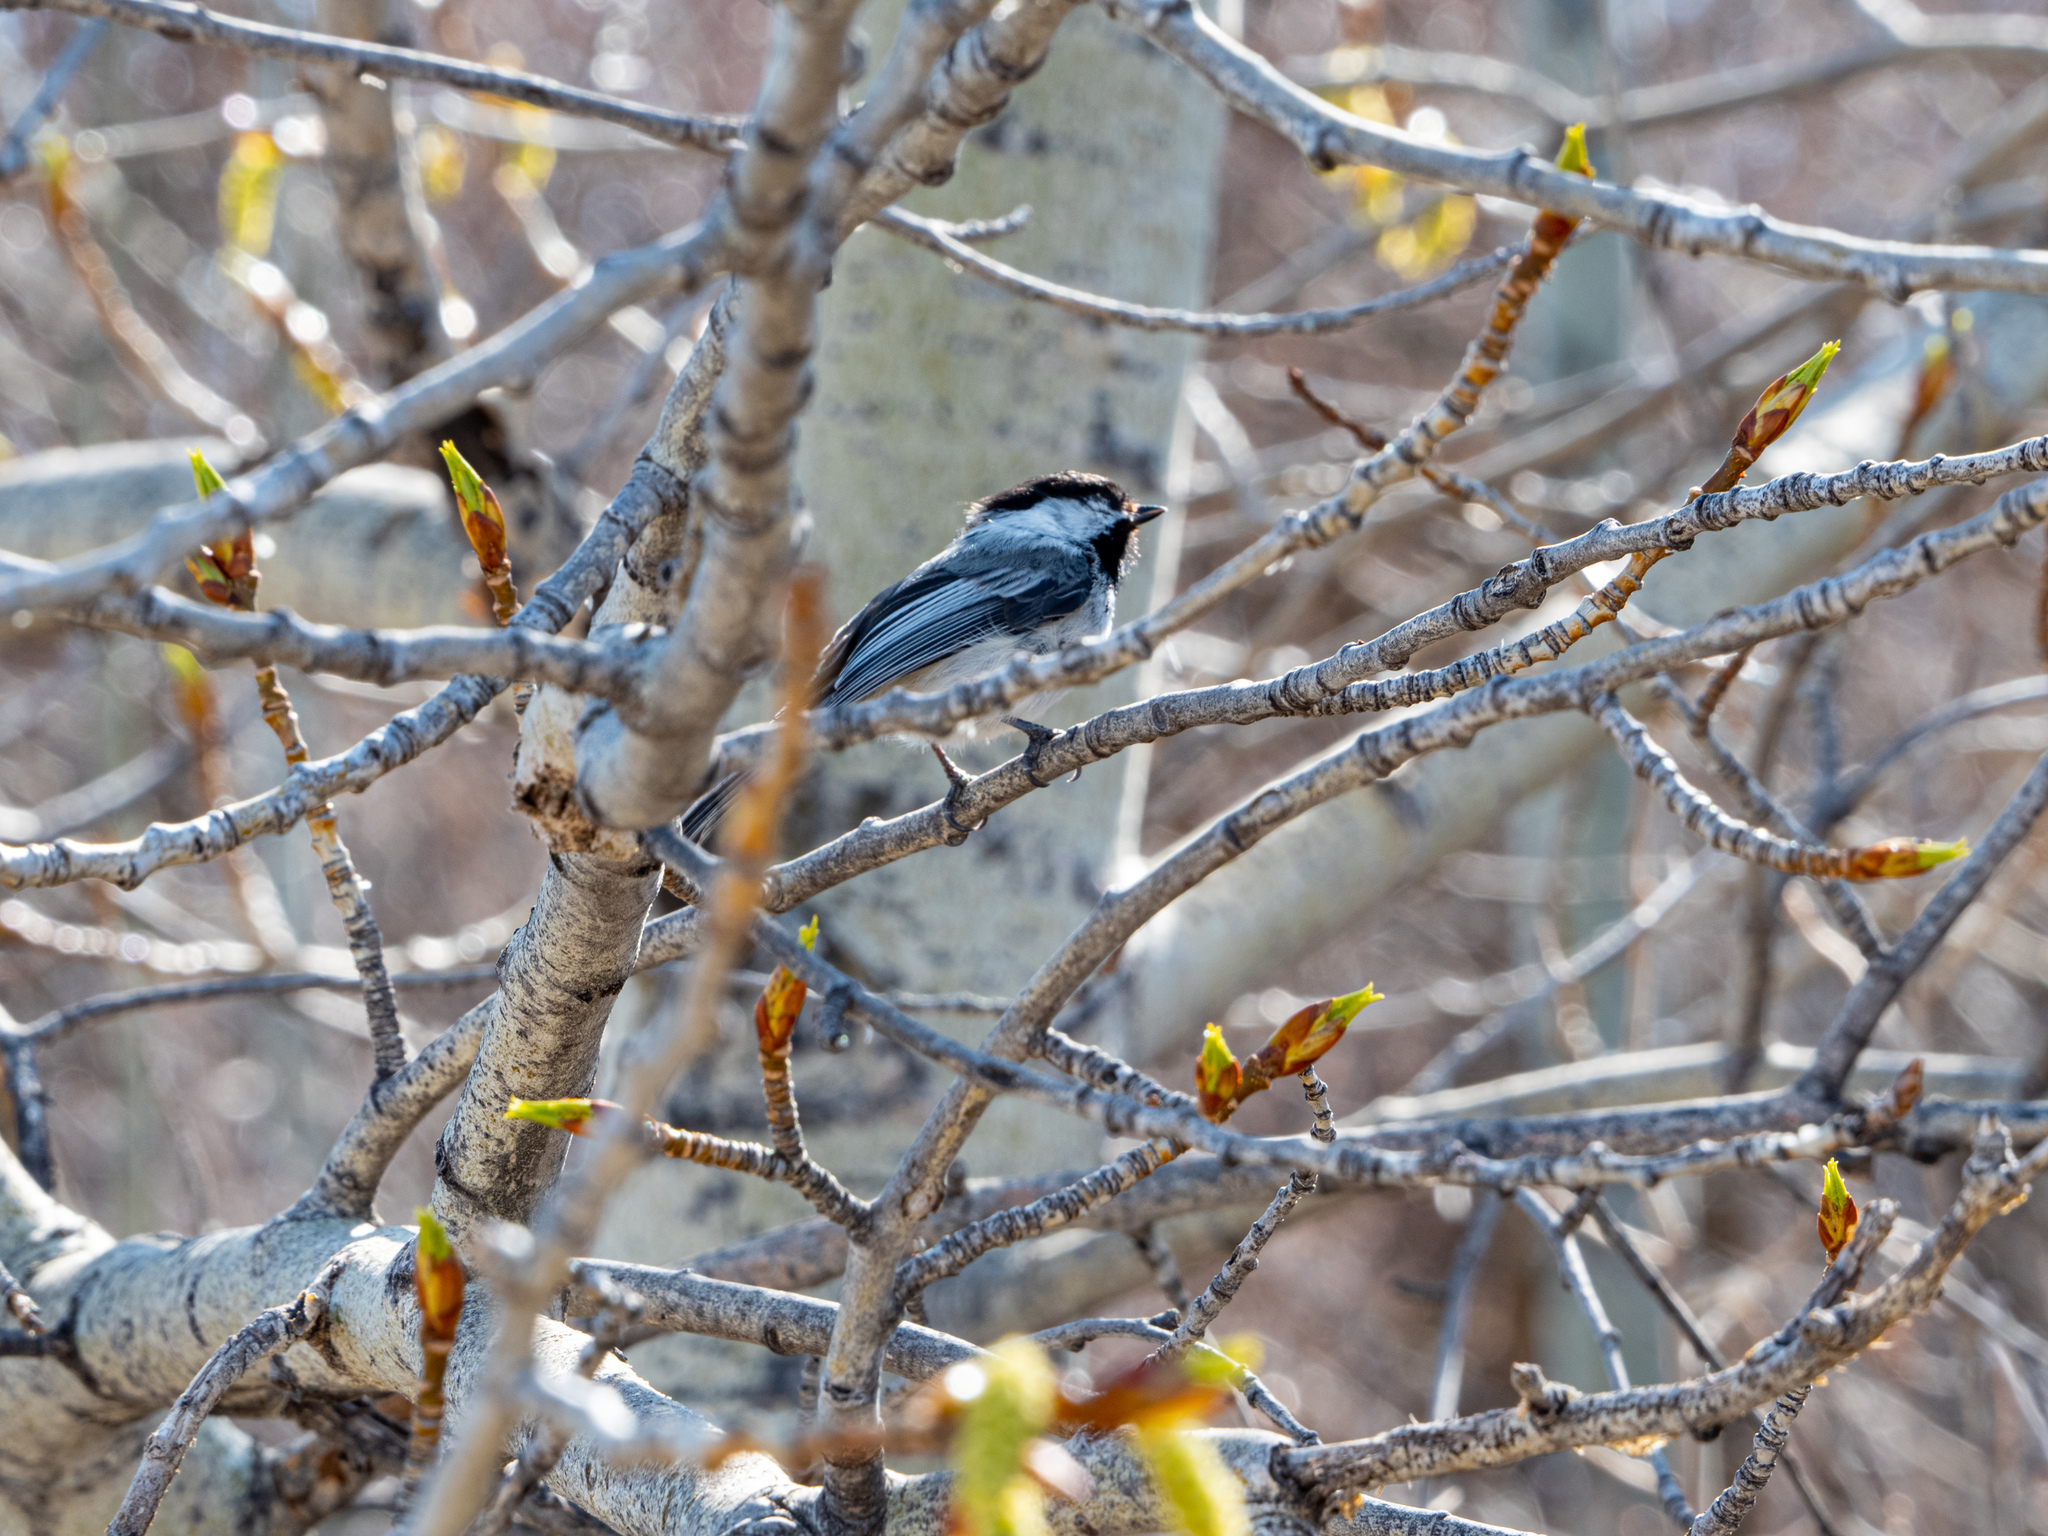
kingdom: Animalia
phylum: Chordata
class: Aves
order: Passeriformes
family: Paridae
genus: Poecile
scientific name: Poecile atricapillus
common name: Black-capped chickadee
